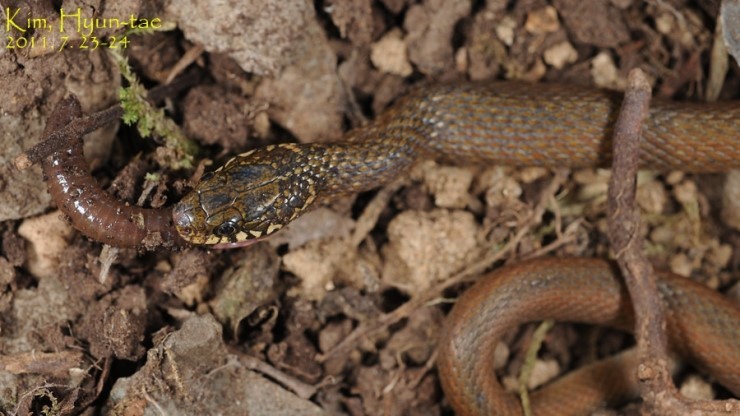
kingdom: Animalia
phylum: Chordata
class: Squamata
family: Colubridae
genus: Hebius
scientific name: Hebius vibakari
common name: Japanese keelback
